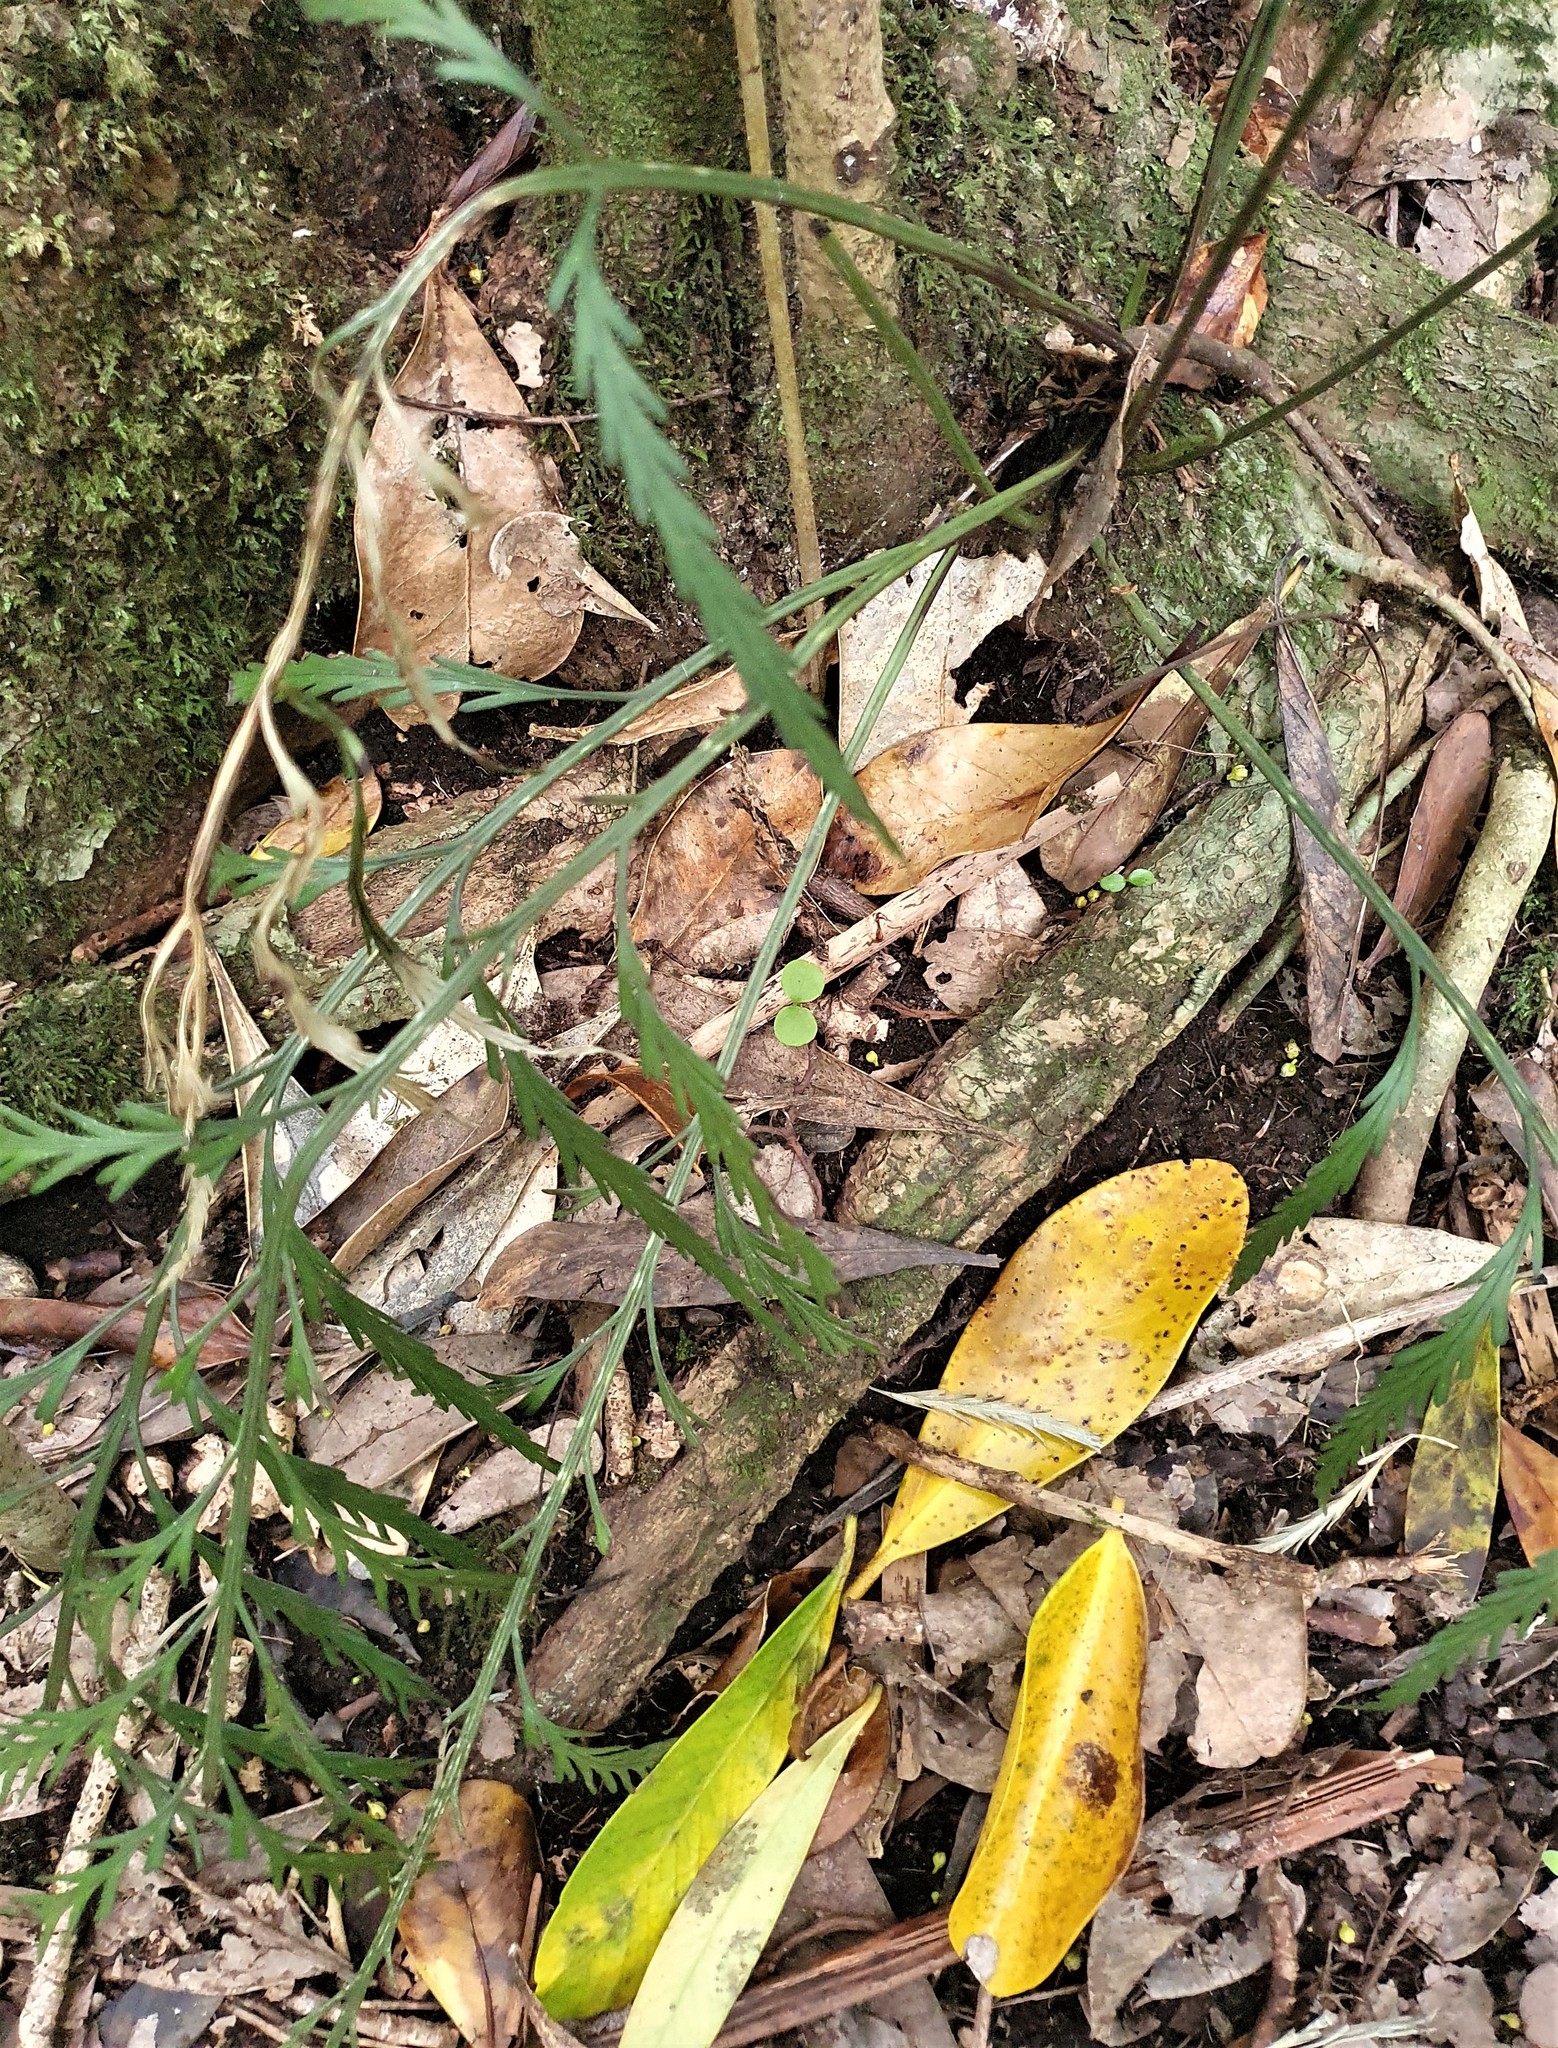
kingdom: Plantae
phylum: Tracheophyta
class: Polypodiopsida
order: Polypodiales
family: Aspleniaceae
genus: Asplenium
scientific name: Asplenium flaccidum
